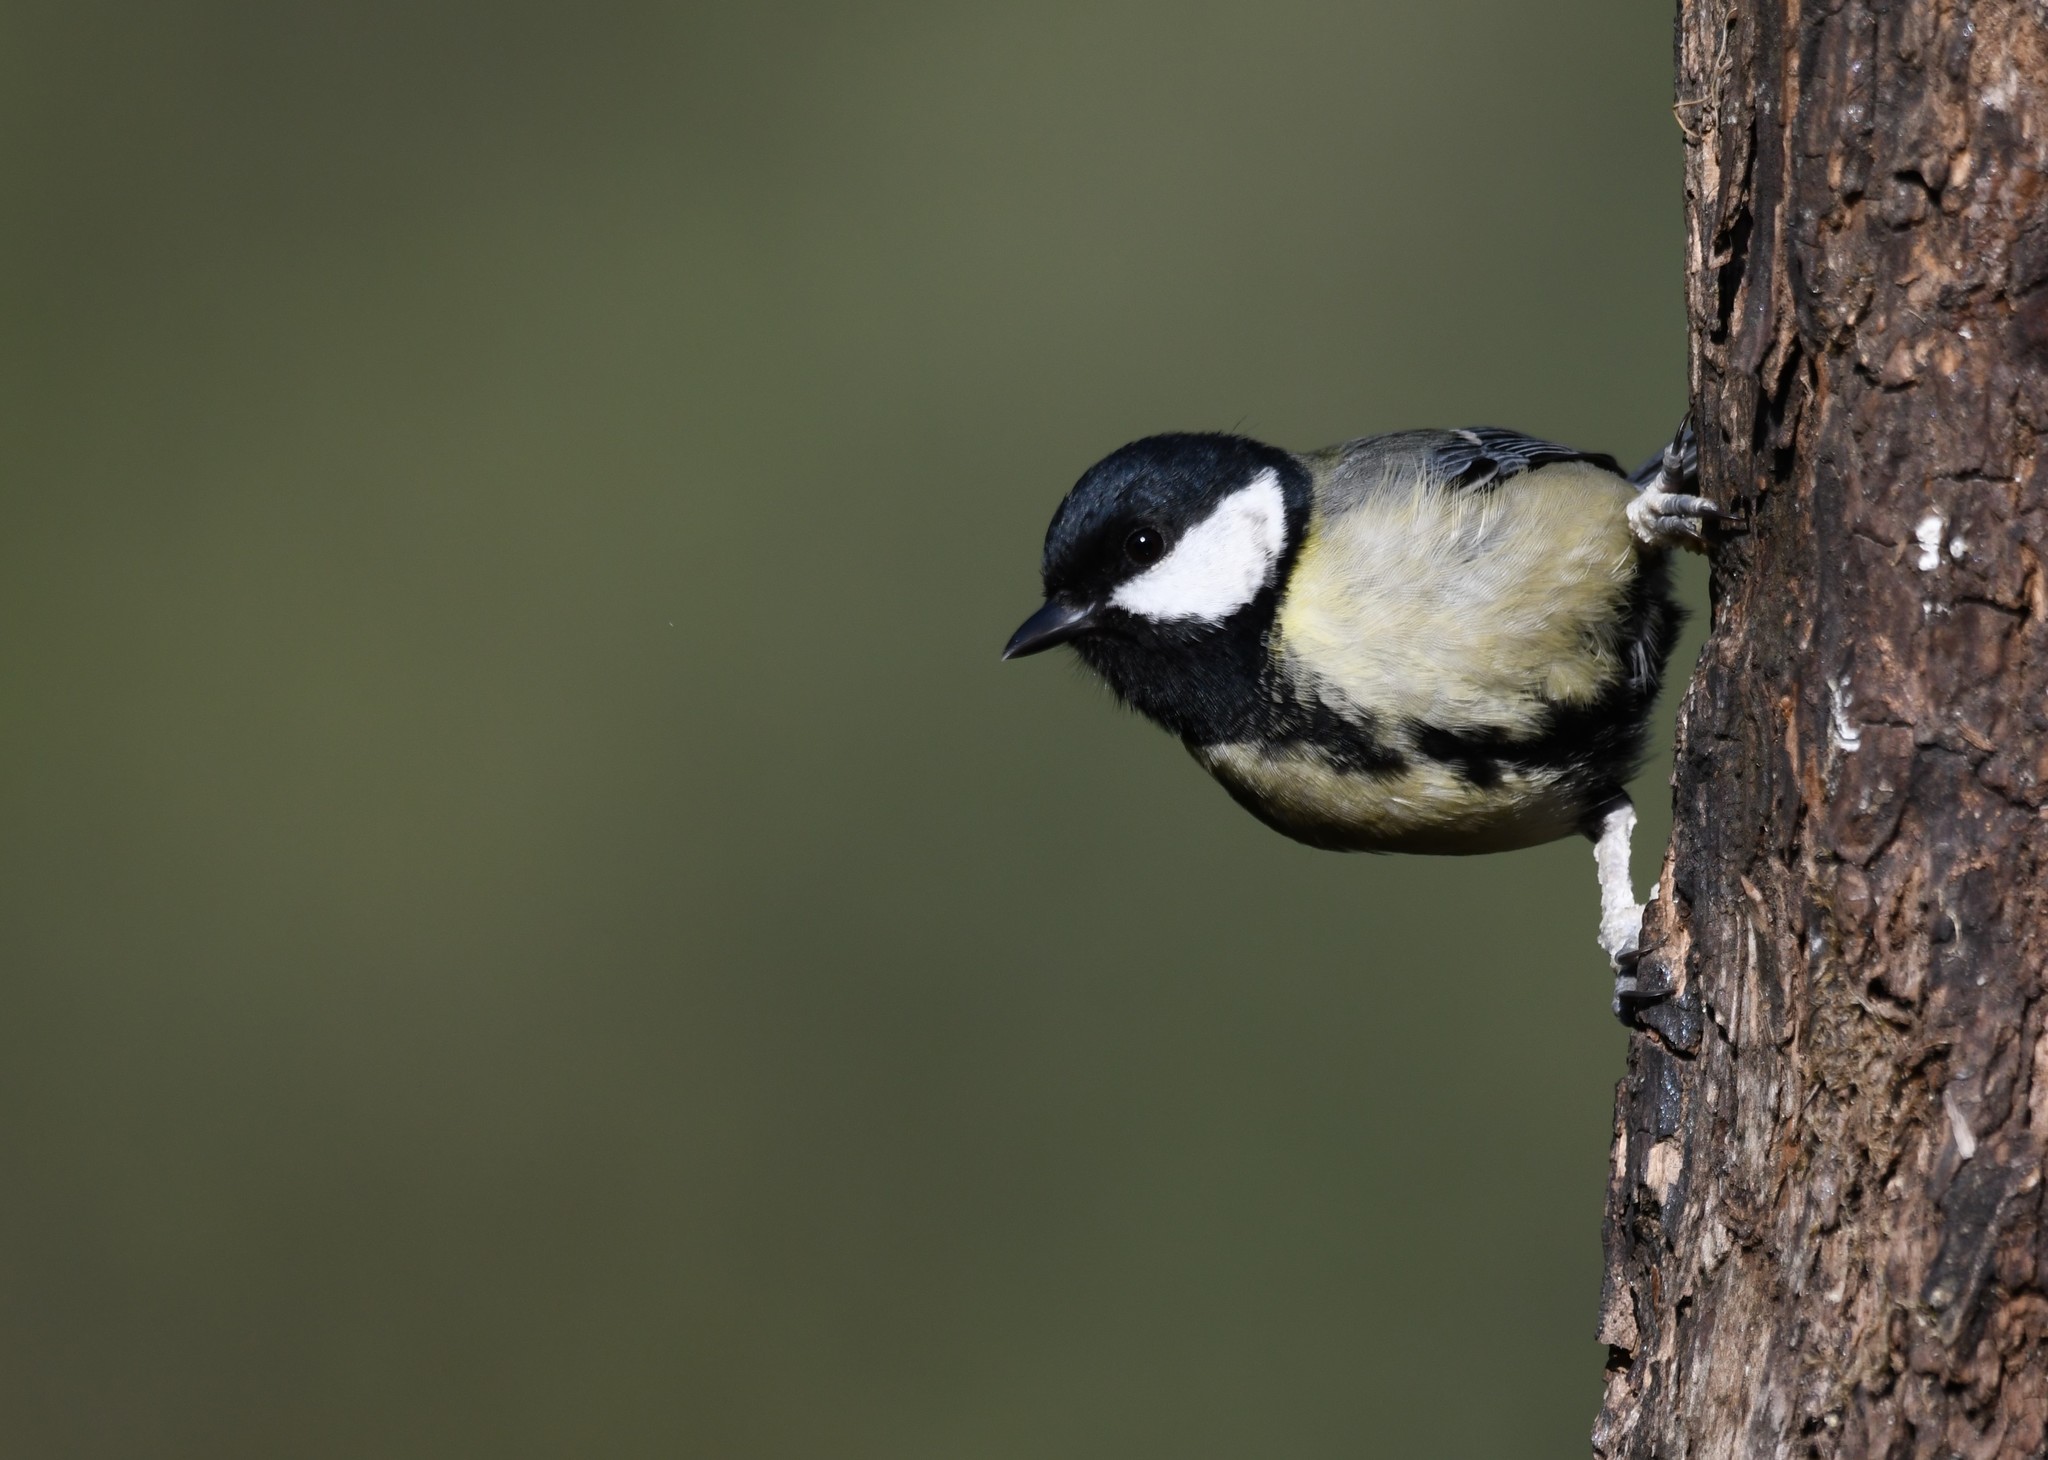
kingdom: Animalia
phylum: Chordata
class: Aves
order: Passeriformes
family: Paridae
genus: Parus
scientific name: Parus major
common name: Great tit
